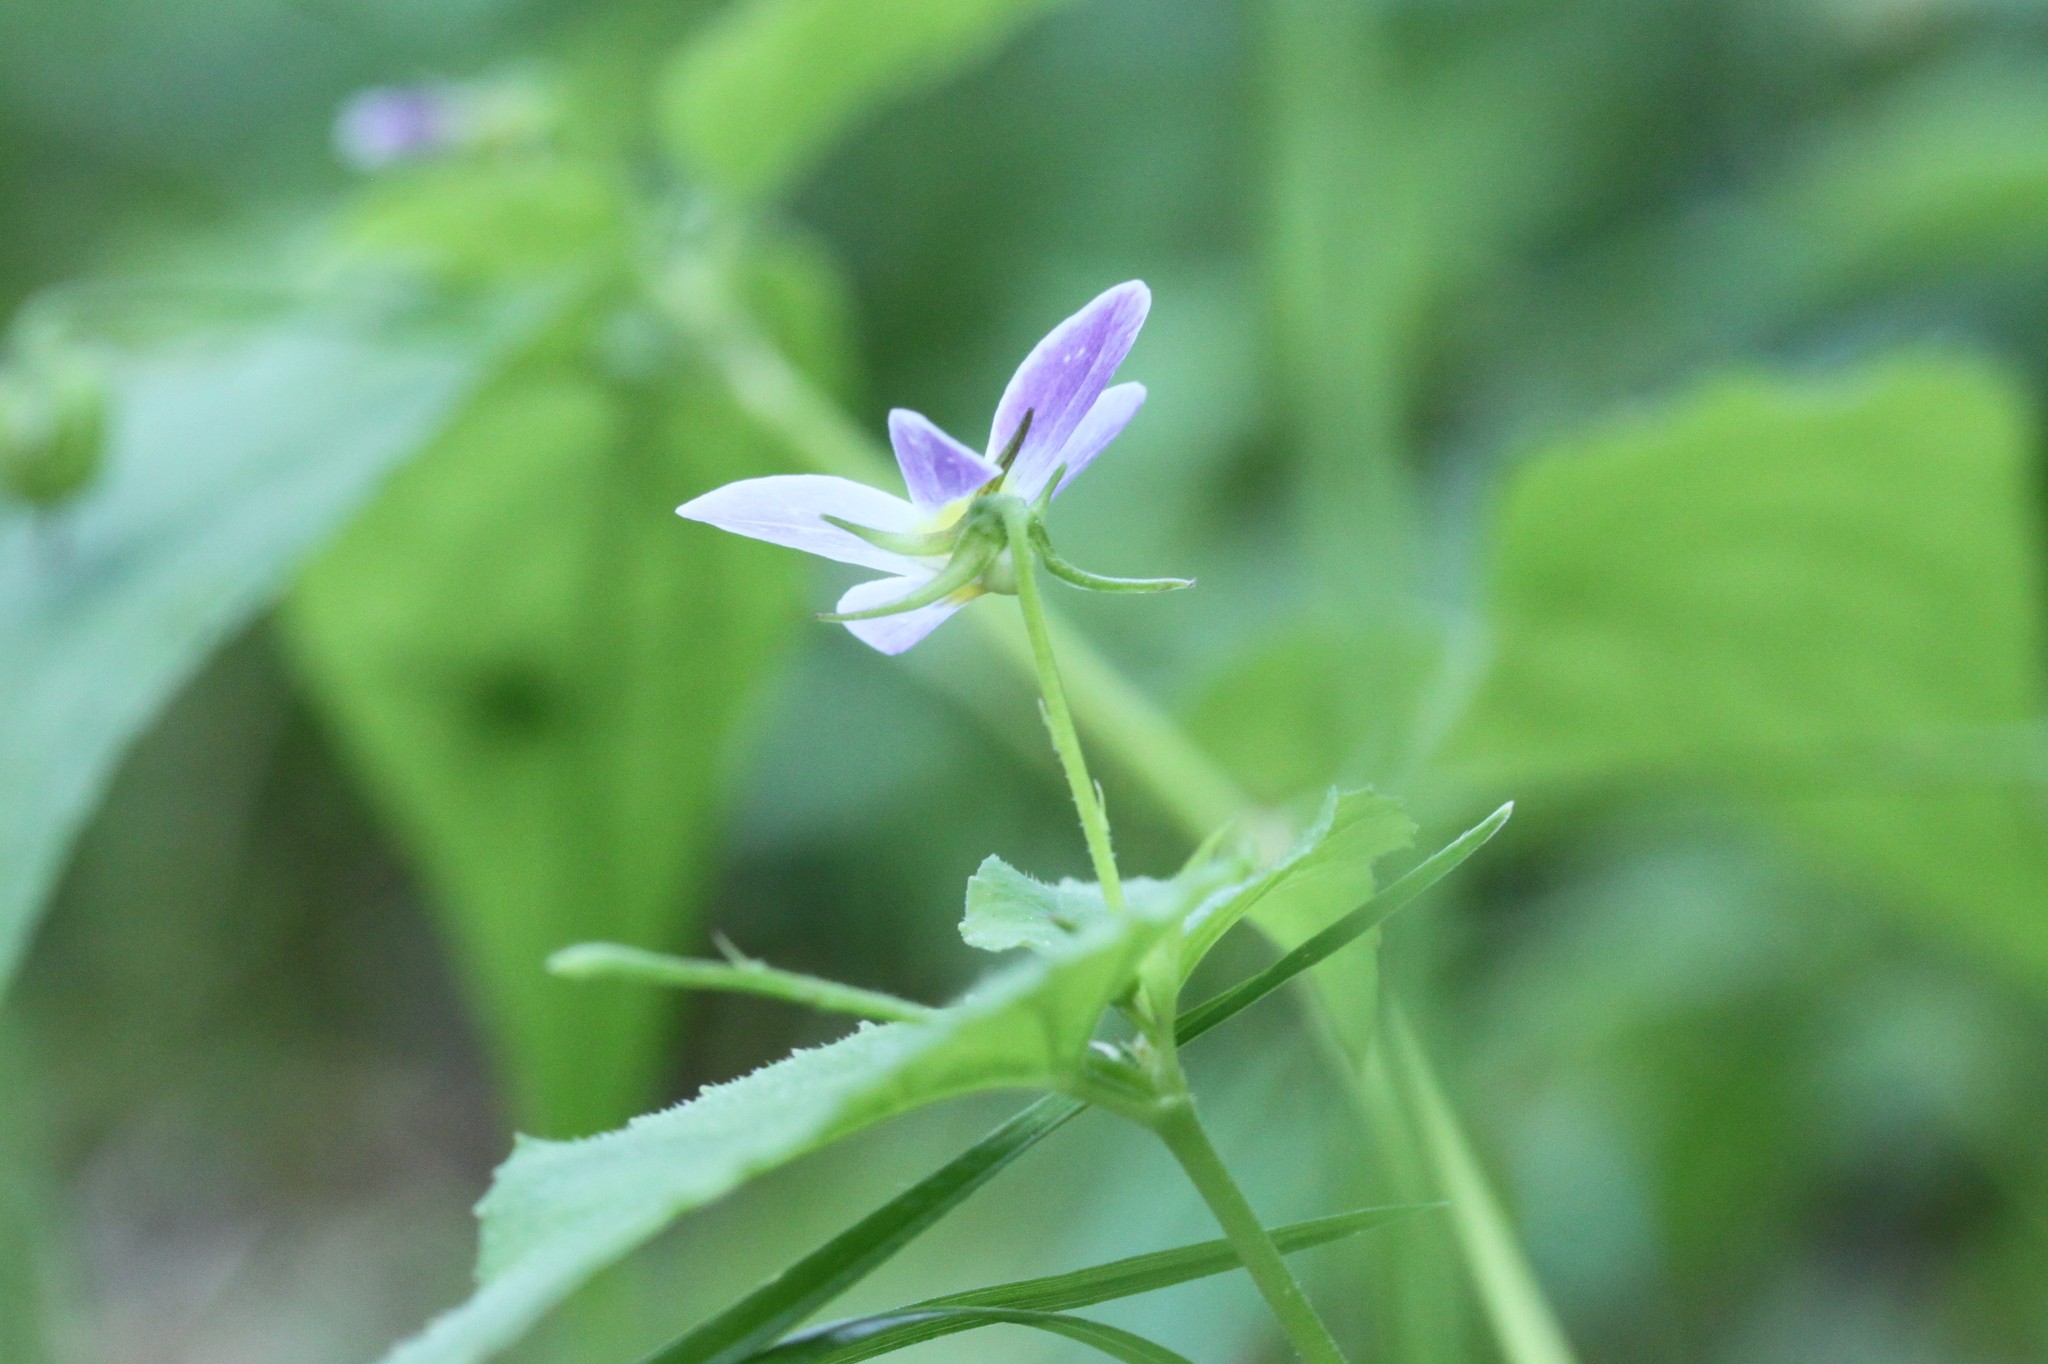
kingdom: Plantae
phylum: Tracheophyta
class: Magnoliopsida
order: Malpighiales
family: Violaceae
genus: Viola
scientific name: Viola canadensis
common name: Canada violet
